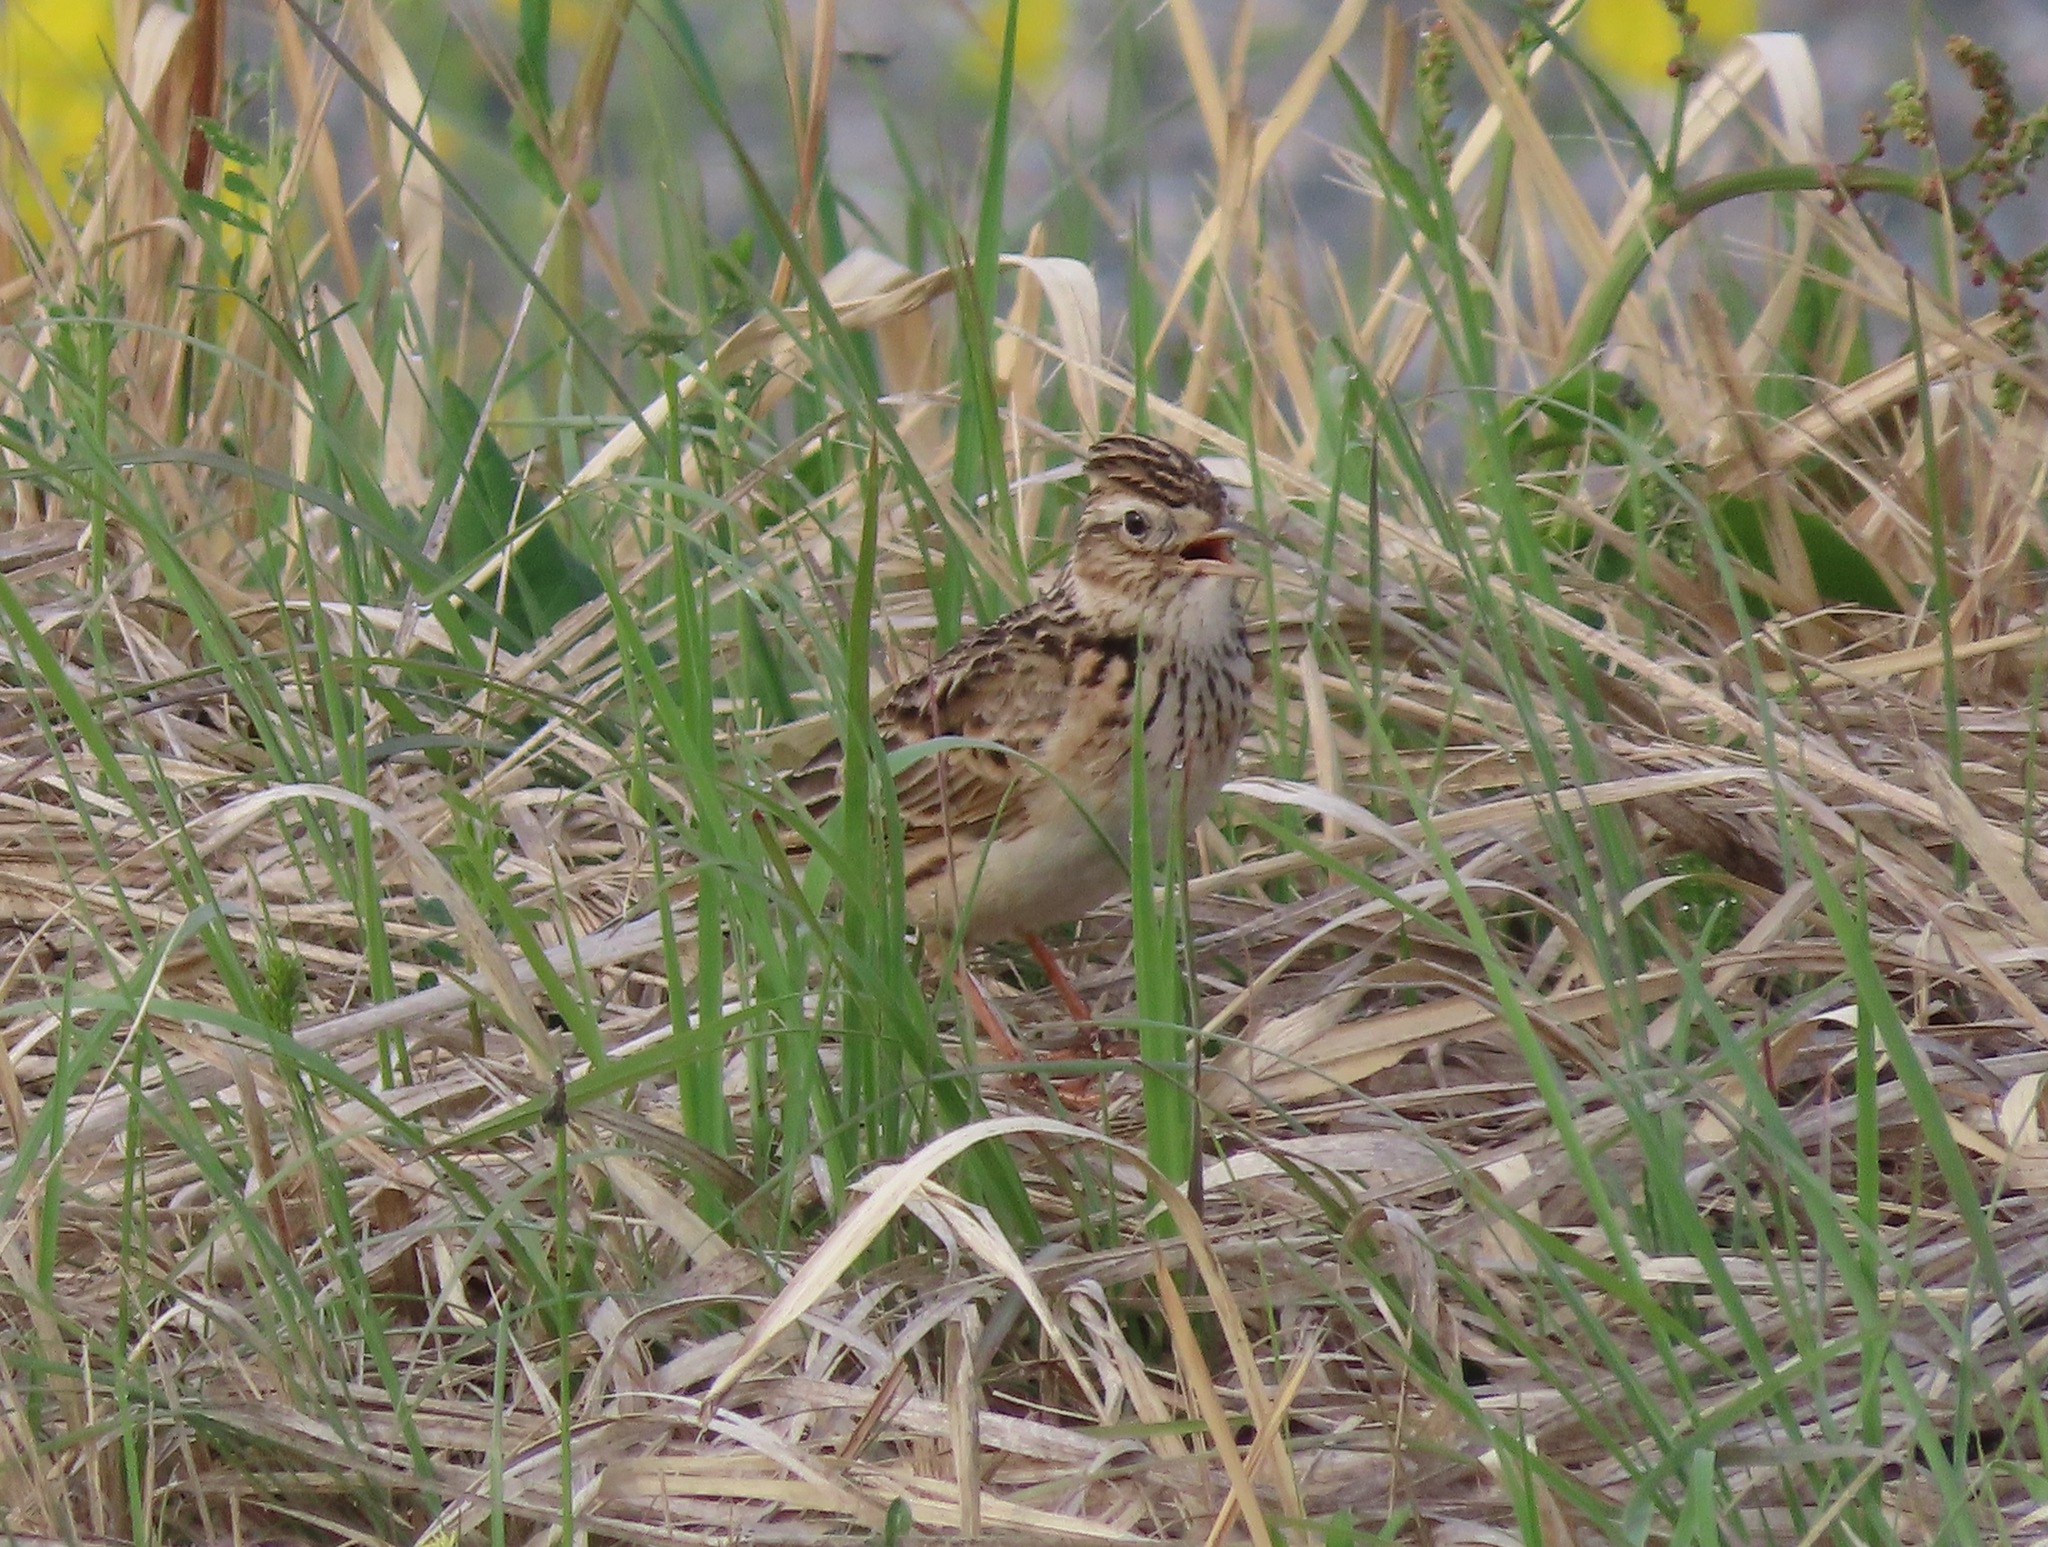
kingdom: Animalia
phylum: Chordata
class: Aves
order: Passeriformes
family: Alaudidae
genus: Alauda
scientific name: Alauda arvensis
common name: Eurasian skylark
